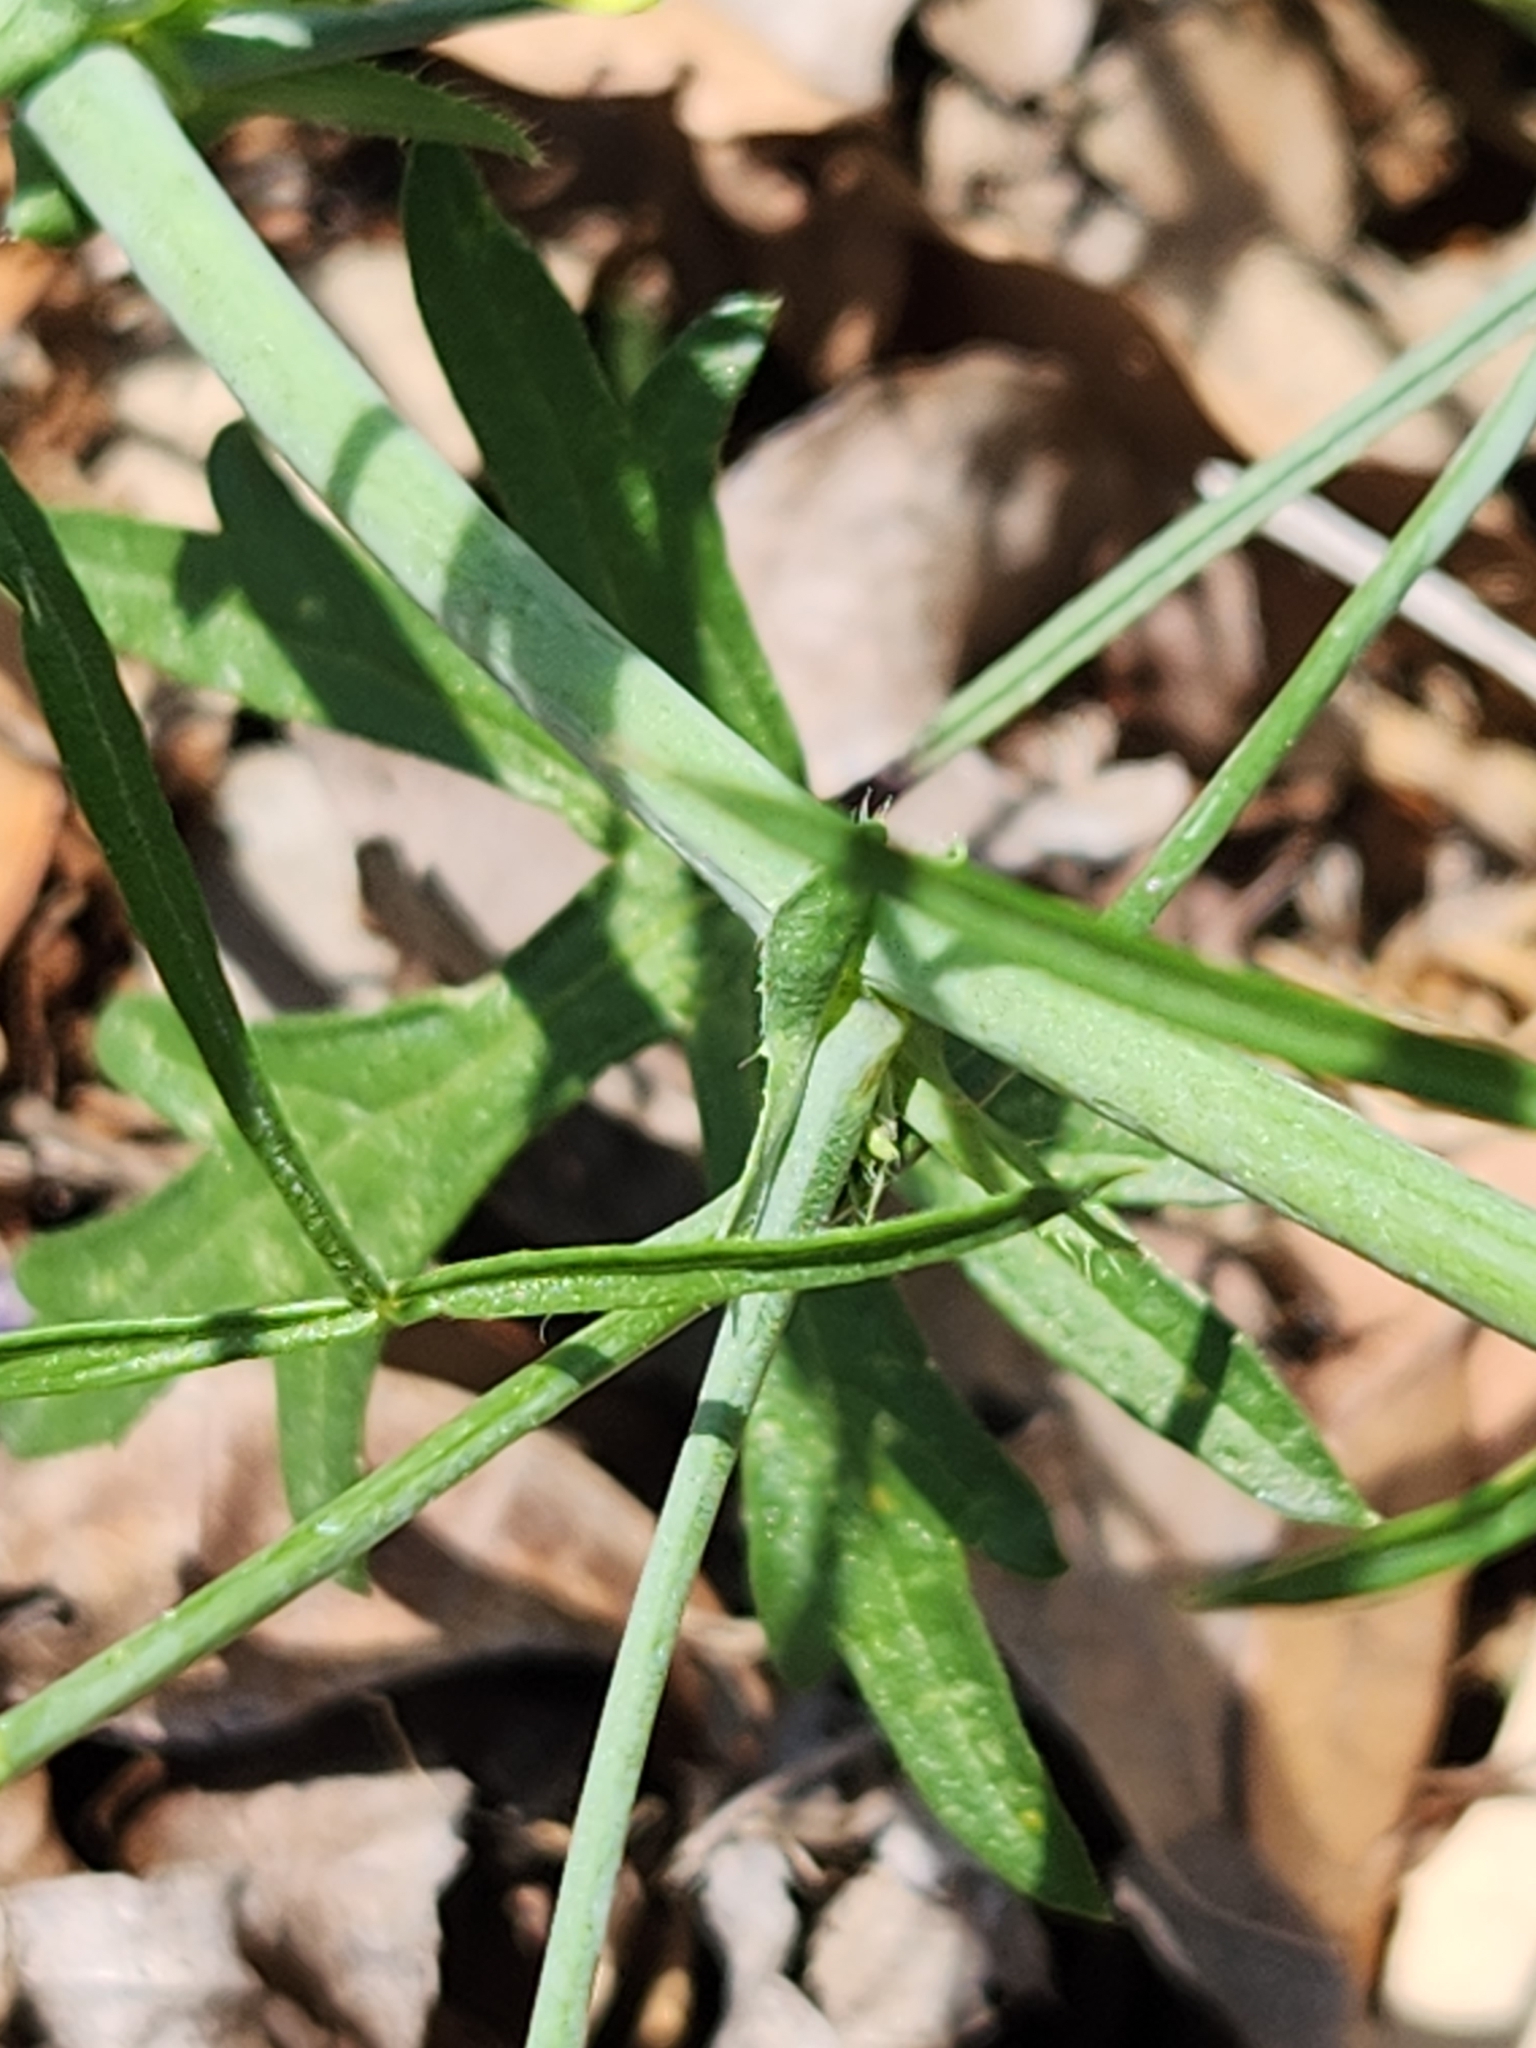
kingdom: Plantae
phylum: Tracheophyta
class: Magnoliopsida
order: Malvales
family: Malvaceae
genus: Callirhoe
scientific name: Callirhoe leiocarpa
